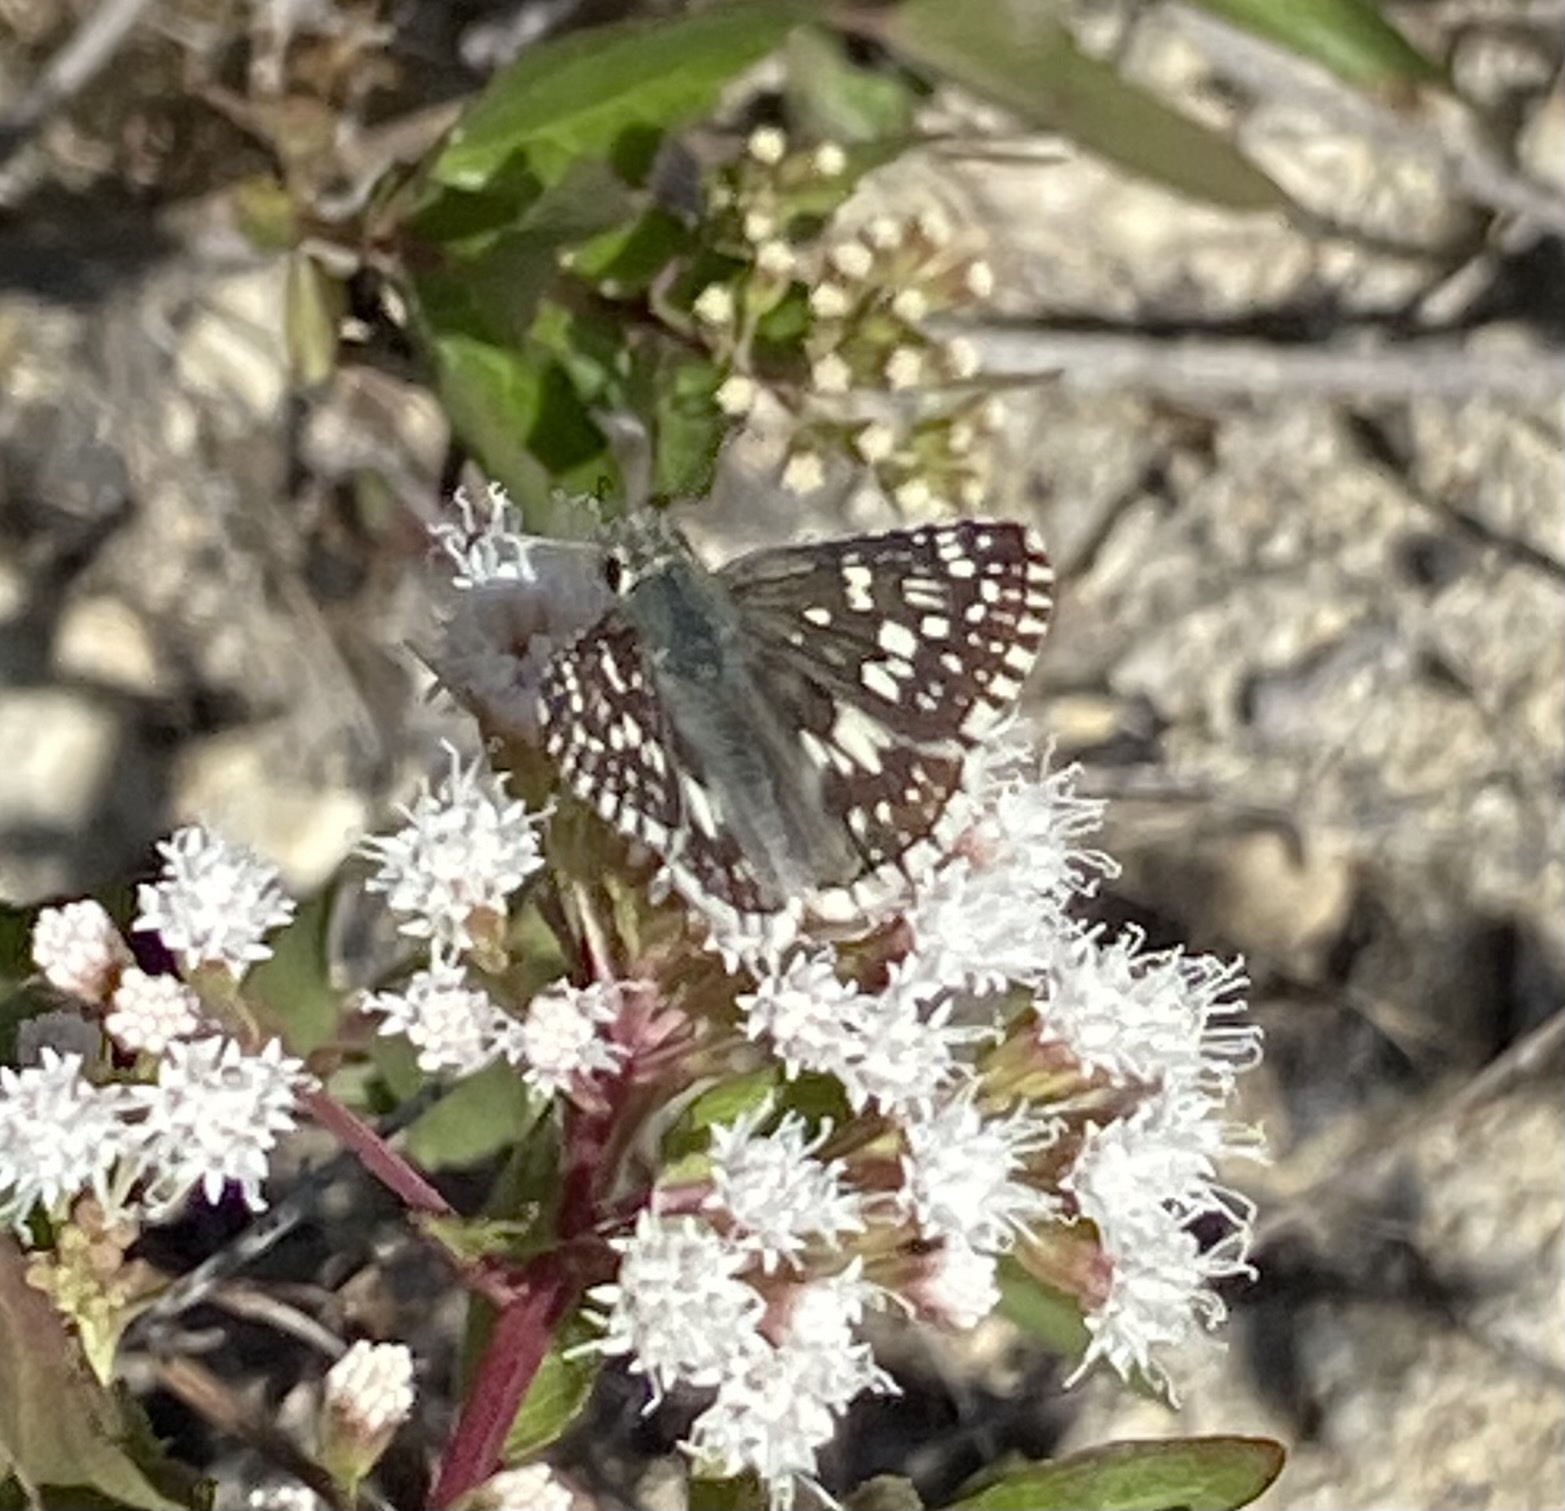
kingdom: Animalia
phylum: Arthropoda
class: Insecta
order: Lepidoptera
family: Hesperiidae
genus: Burnsius
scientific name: Burnsius
